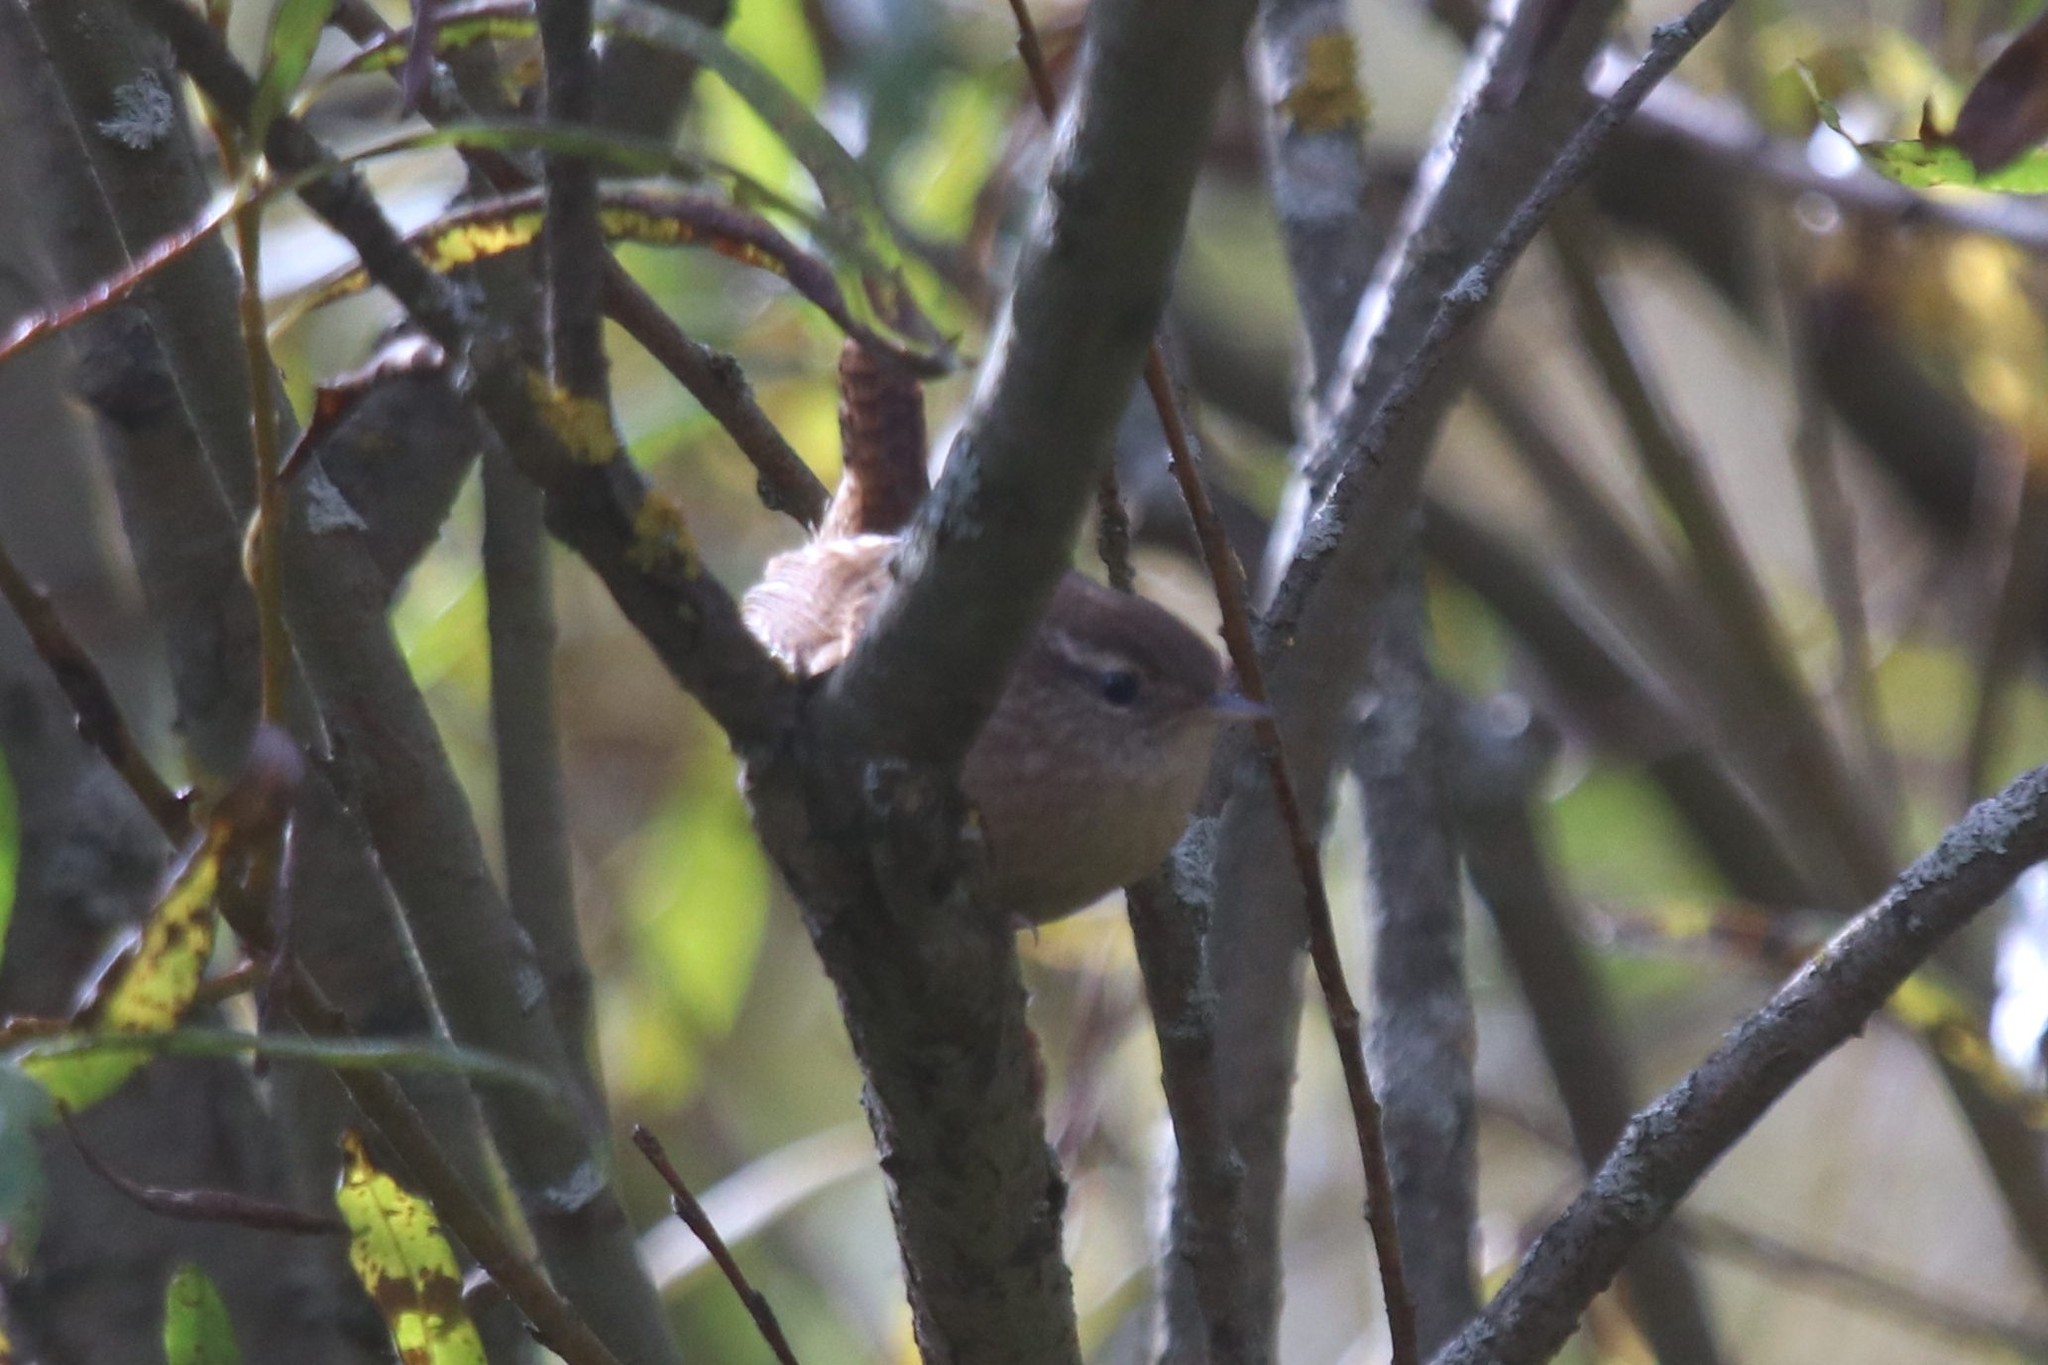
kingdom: Animalia
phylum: Chordata
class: Aves
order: Passeriformes
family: Troglodytidae
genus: Troglodytes
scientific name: Troglodytes troglodytes
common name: Eurasian wren
